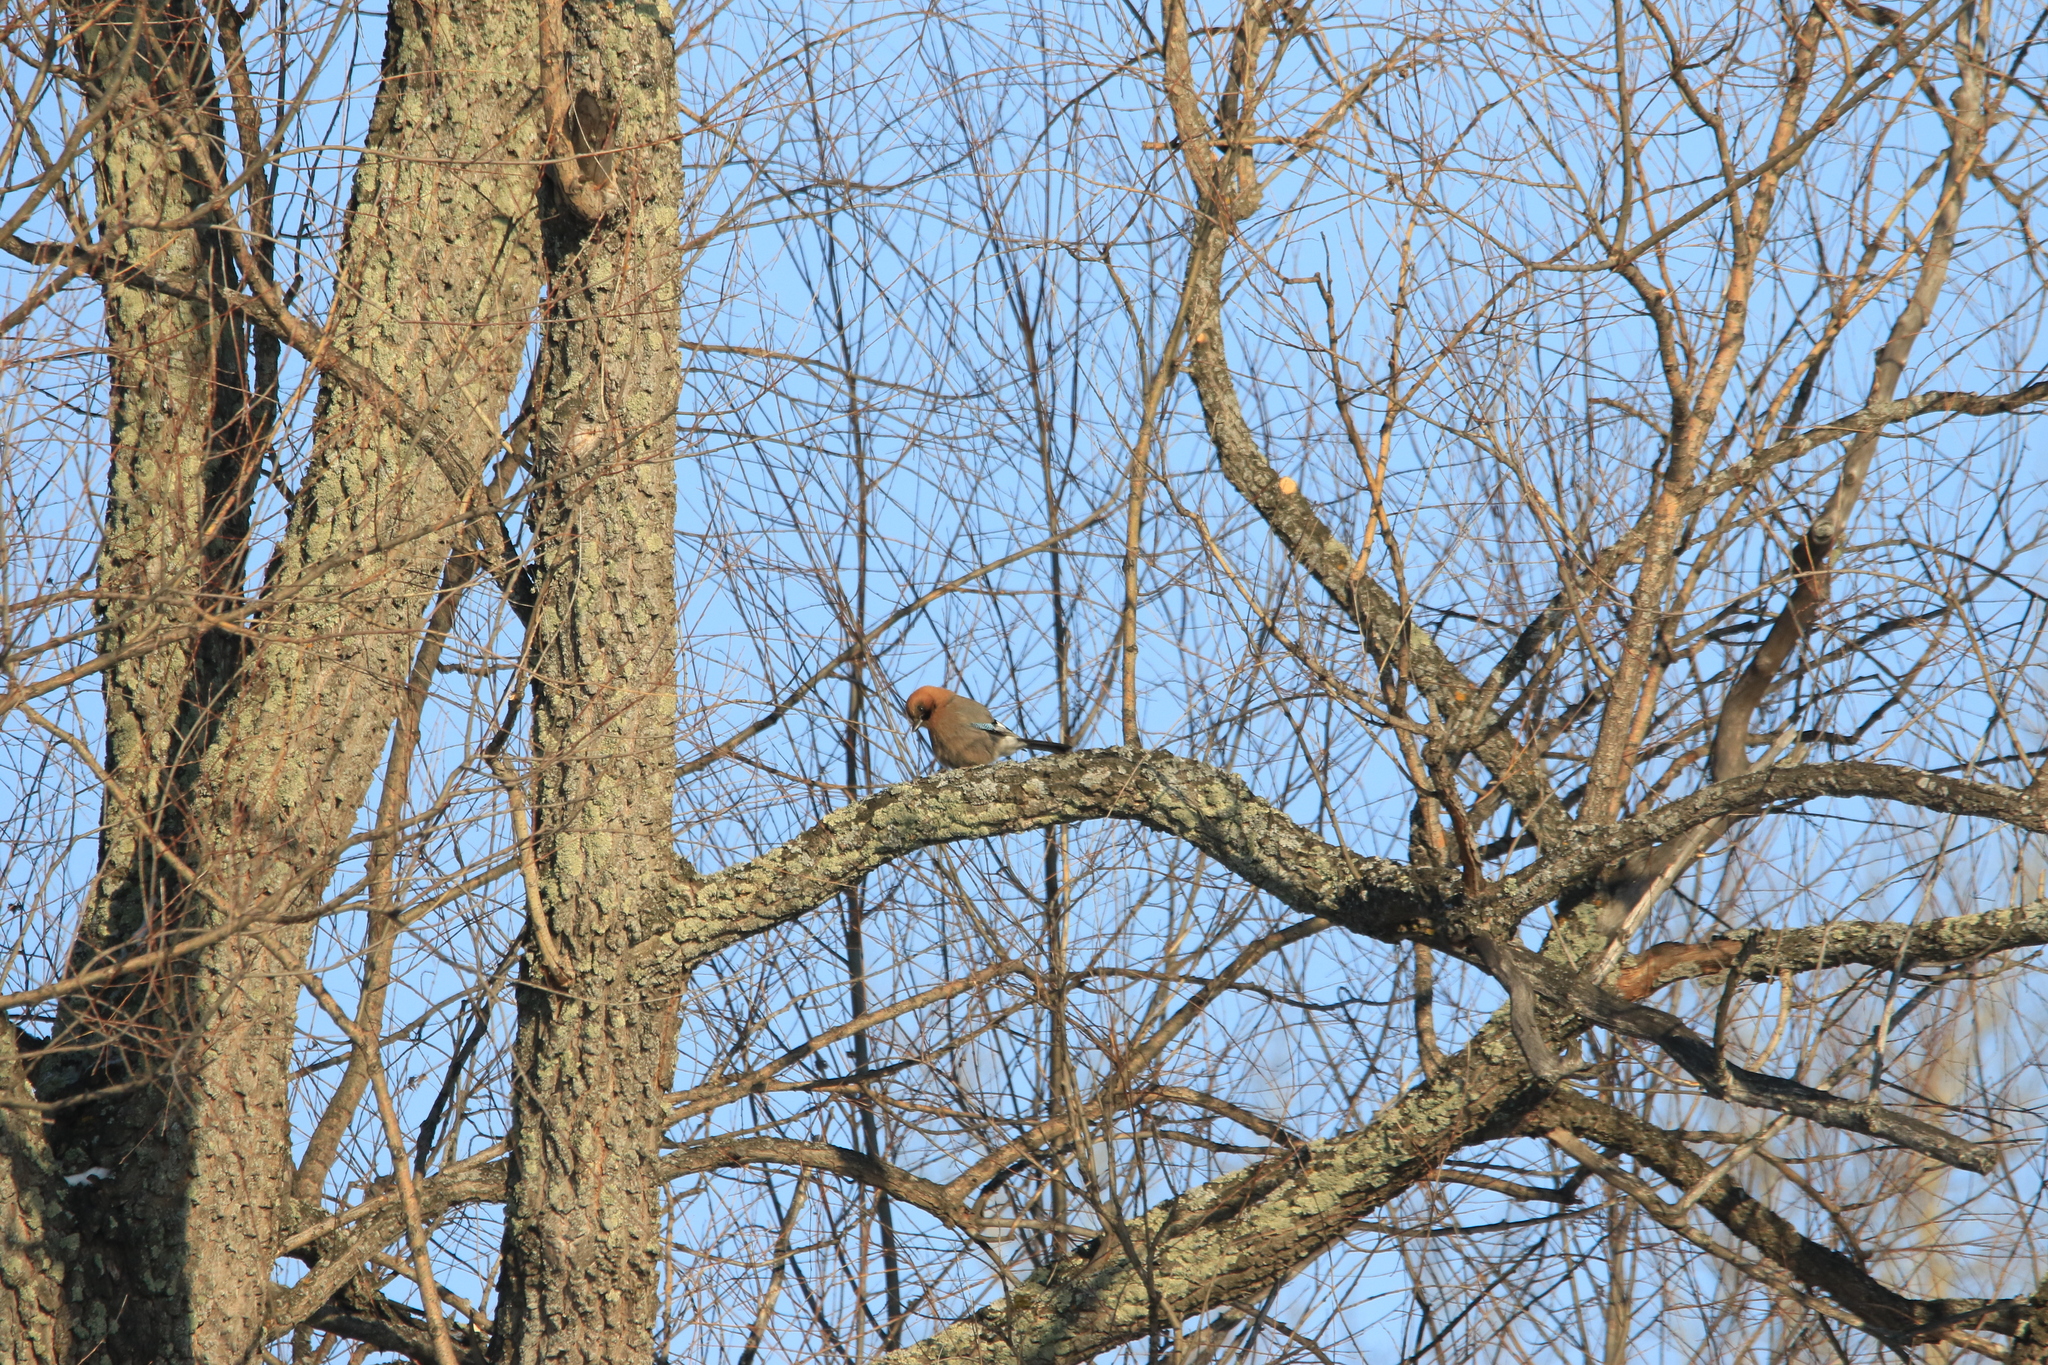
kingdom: Animalia
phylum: Chordata
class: Aves
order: Passeriformes
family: Corvidae
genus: Garrulus
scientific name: Garrulus glandarius
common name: Eurasian jay
